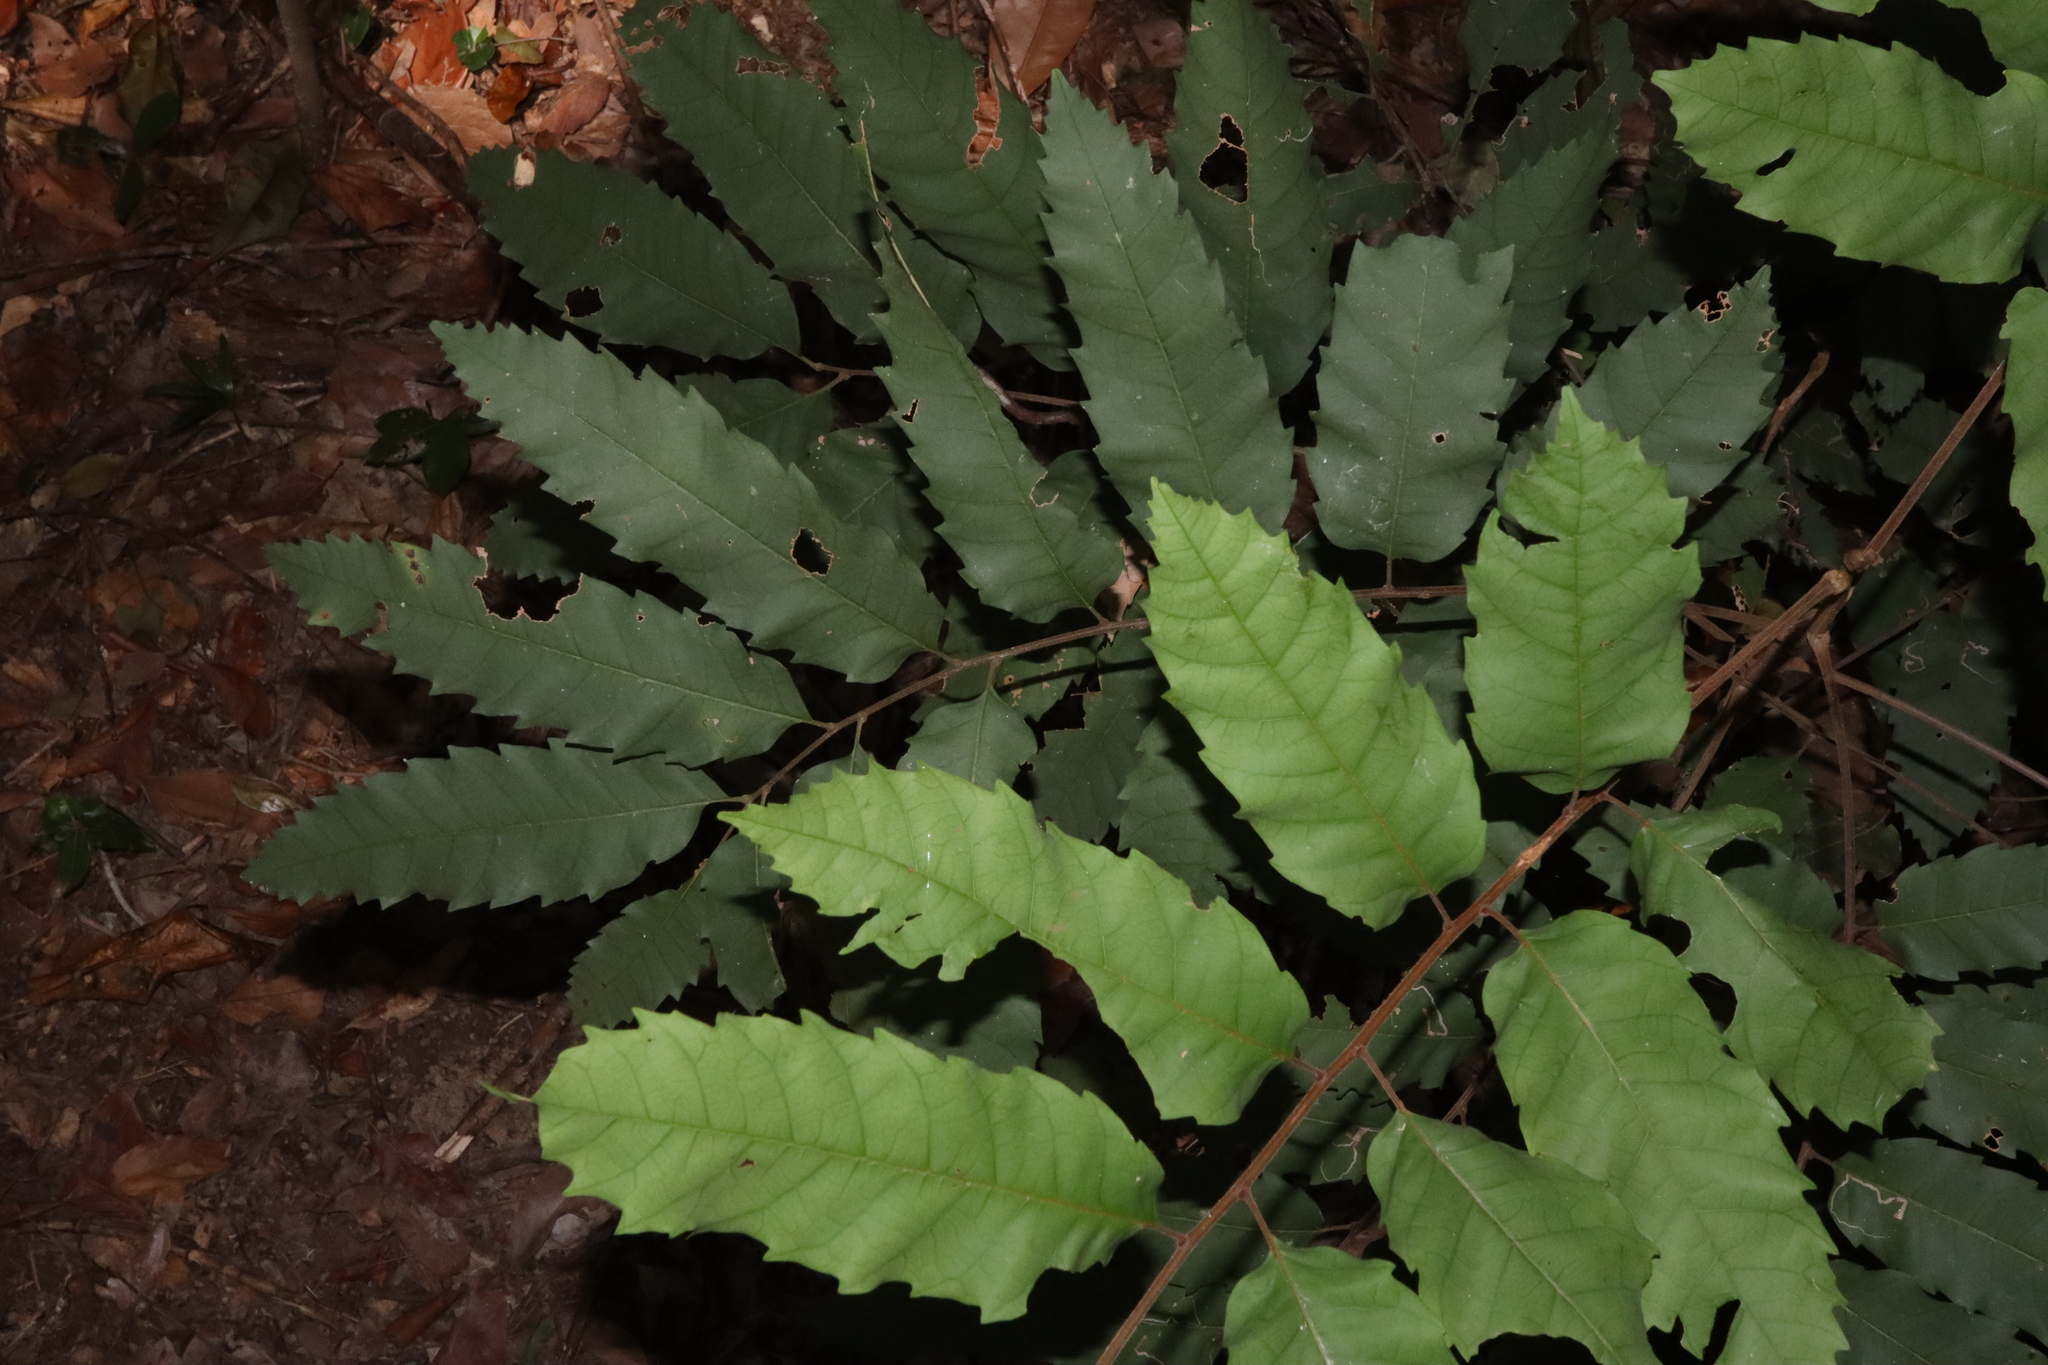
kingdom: Plantae
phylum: Tracheophyta
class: Magnoliopsida
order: Sapindales
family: Sapindaceae
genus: Cupaniopsis
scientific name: Cupaniopsis flagelliformis
